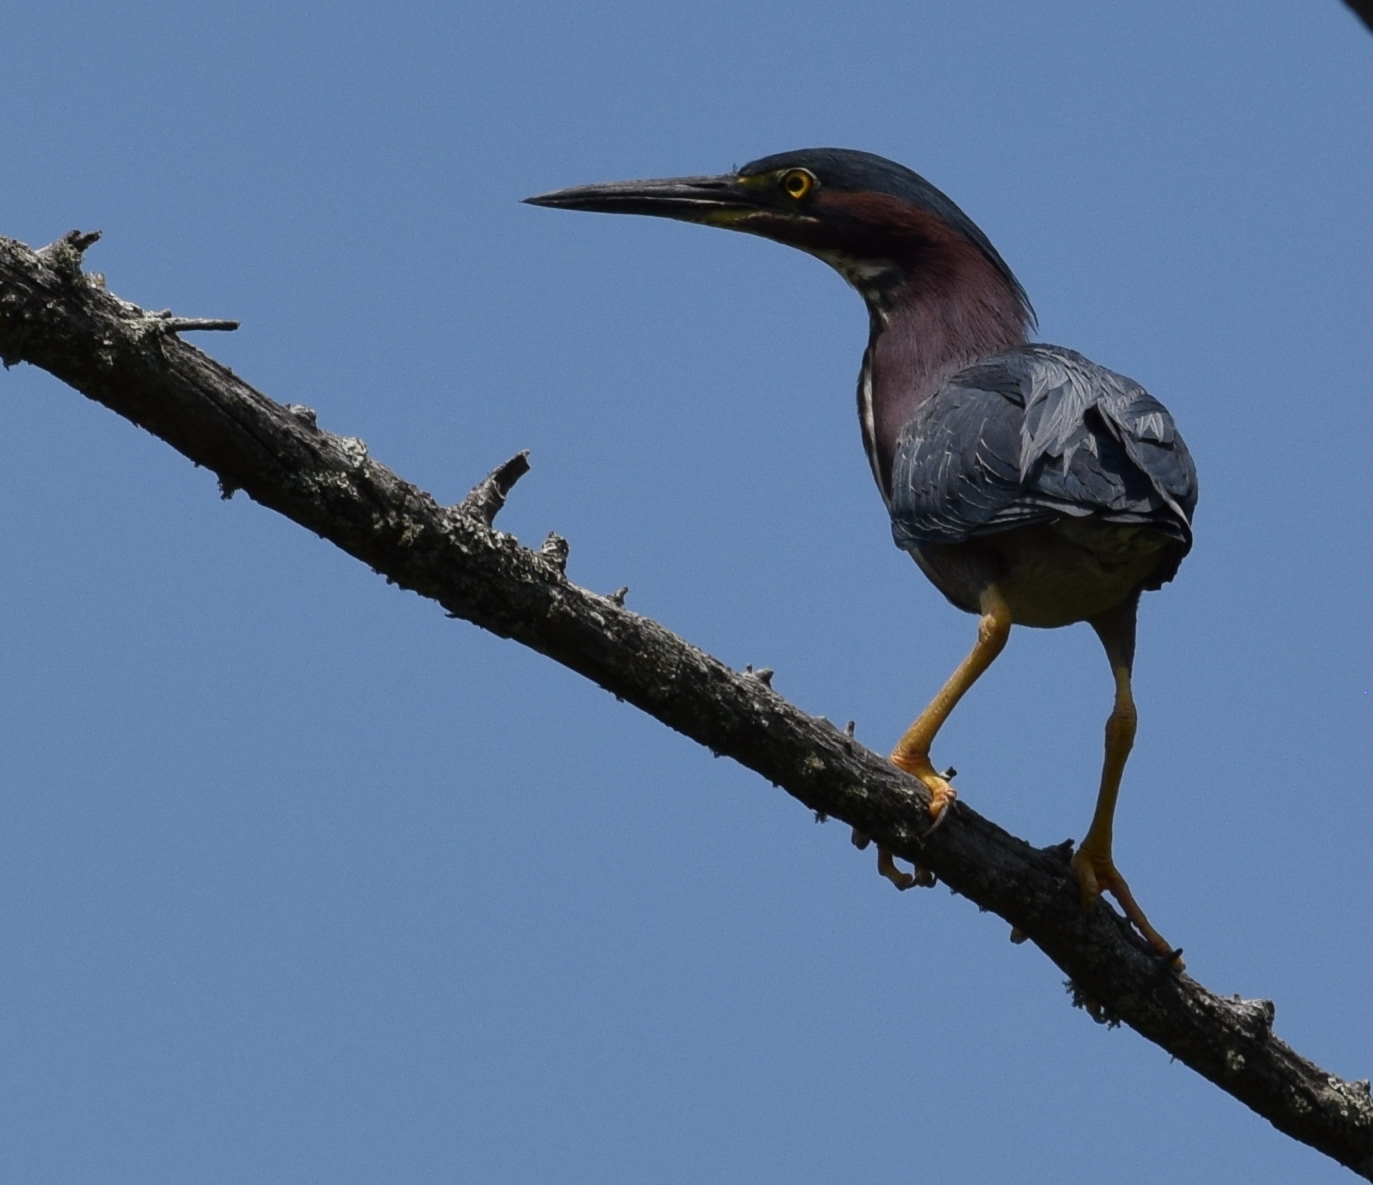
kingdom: Animalia
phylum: Chordata
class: Aves
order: Pelecaniformes
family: Ardeidae
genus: Butorides
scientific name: Butorides virescens
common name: Green heron
